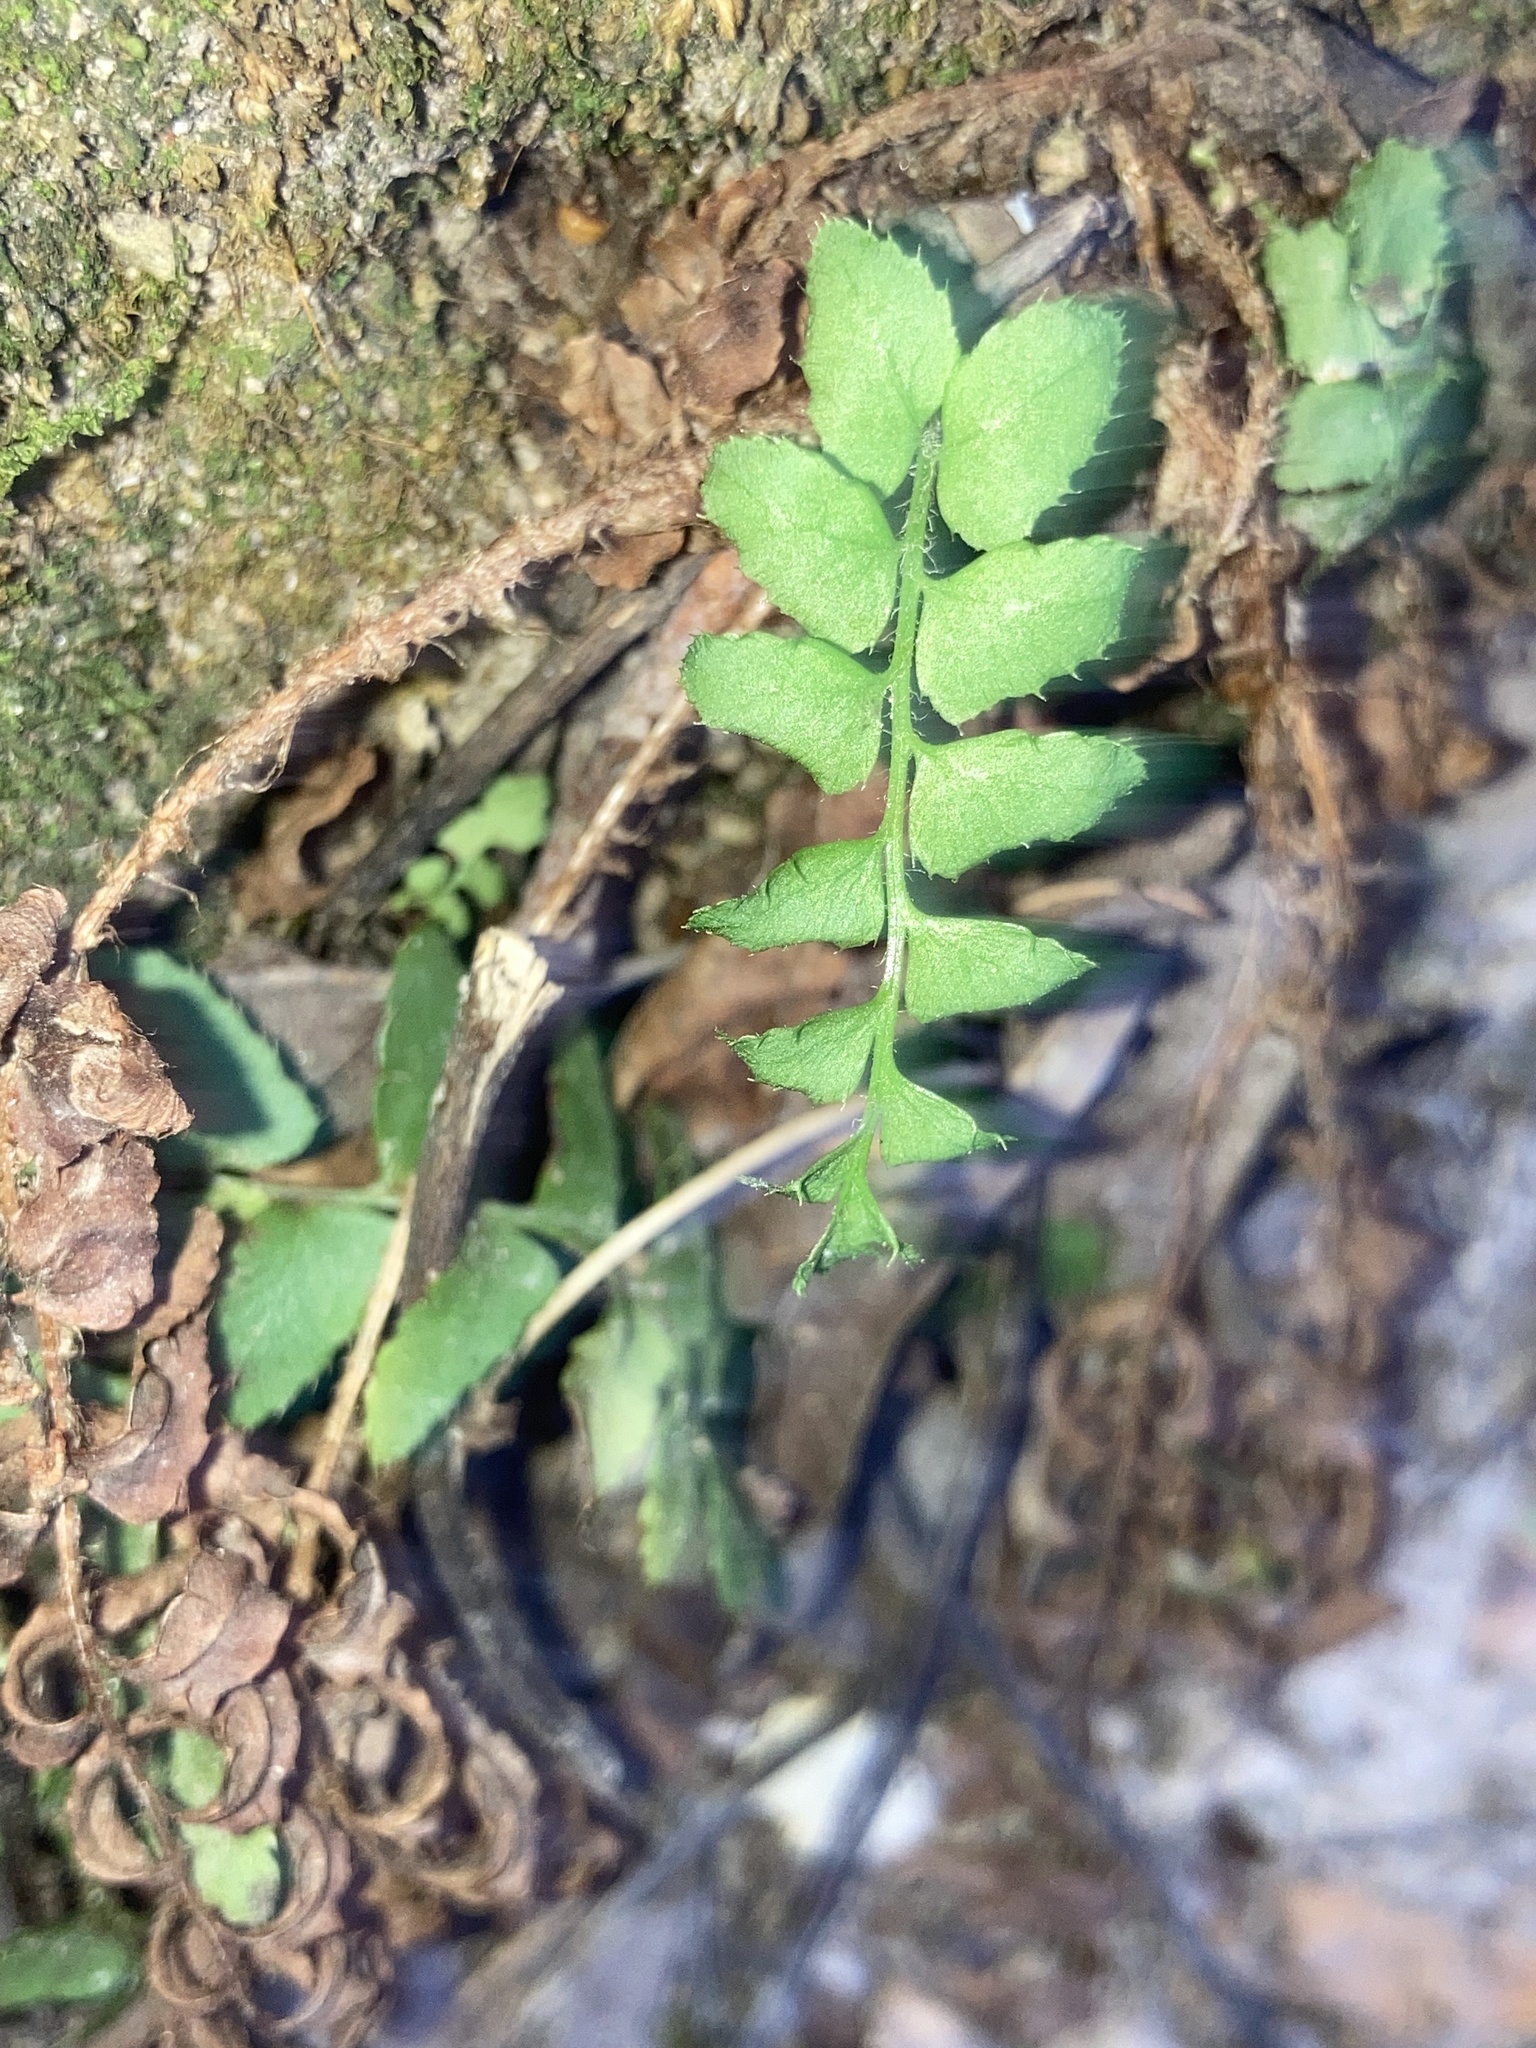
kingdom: Plantae
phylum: Tracheophyta
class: Polypodiopsida
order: Polypodiales
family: Dryopteridaceae
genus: Polystichum
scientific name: Polystichum acrostichoides
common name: Christmas fern
